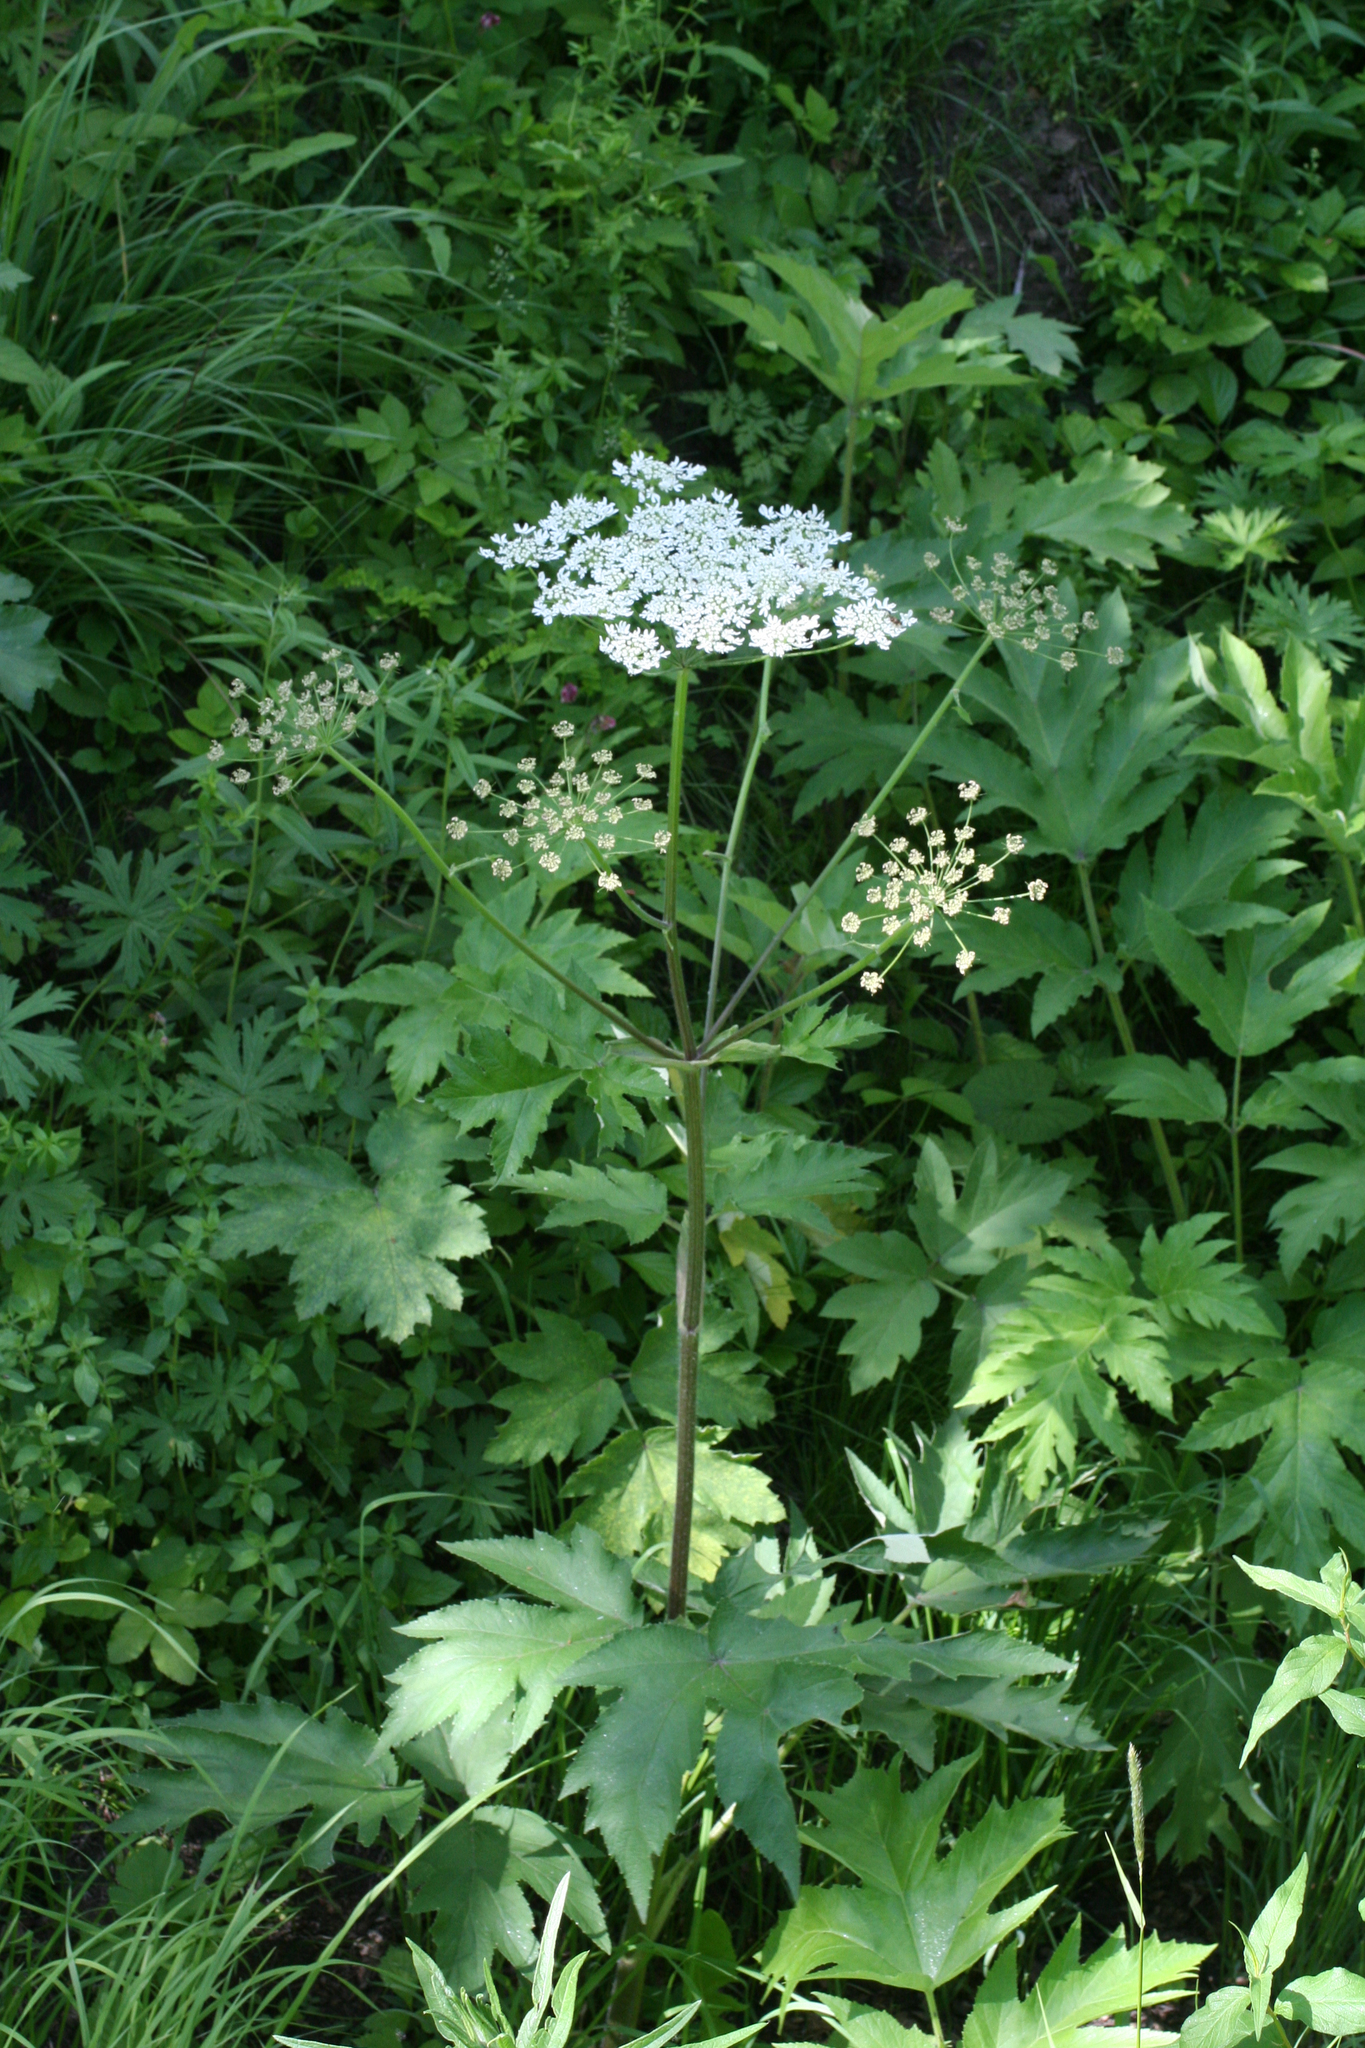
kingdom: Plantae
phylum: Tracheophyta
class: Magnoliopsida
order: Apiales
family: Apiaceae
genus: Heracleum
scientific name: Heracleum dissectum
